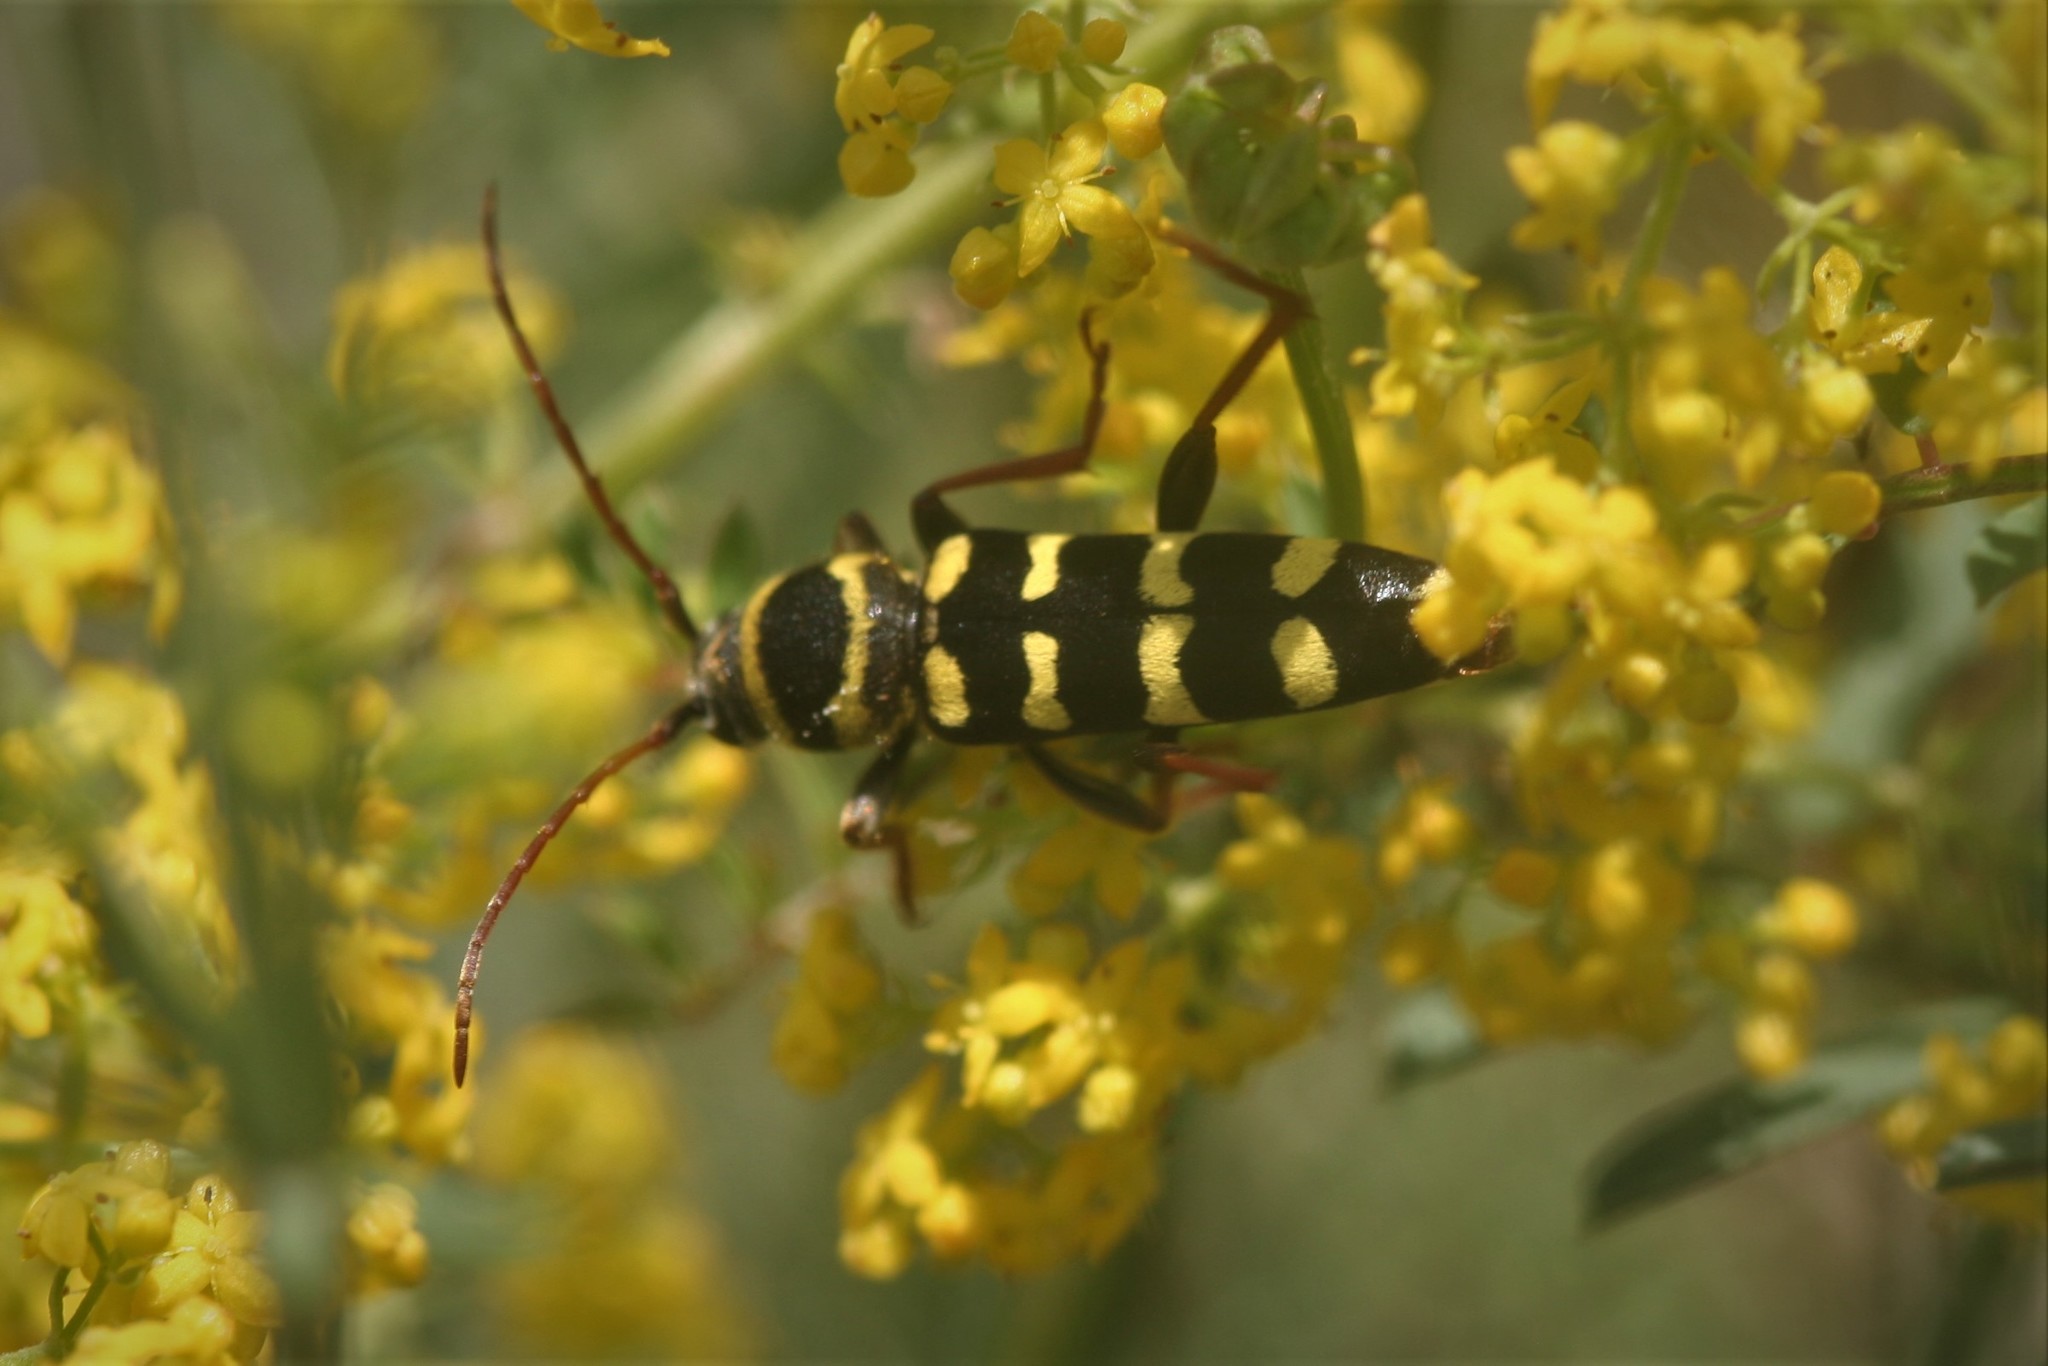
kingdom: Animalia
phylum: Arthropoda
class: Insecta
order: Coleoptera
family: Cerambycidae
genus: Plagionotus
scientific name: Plagionotus floralis
